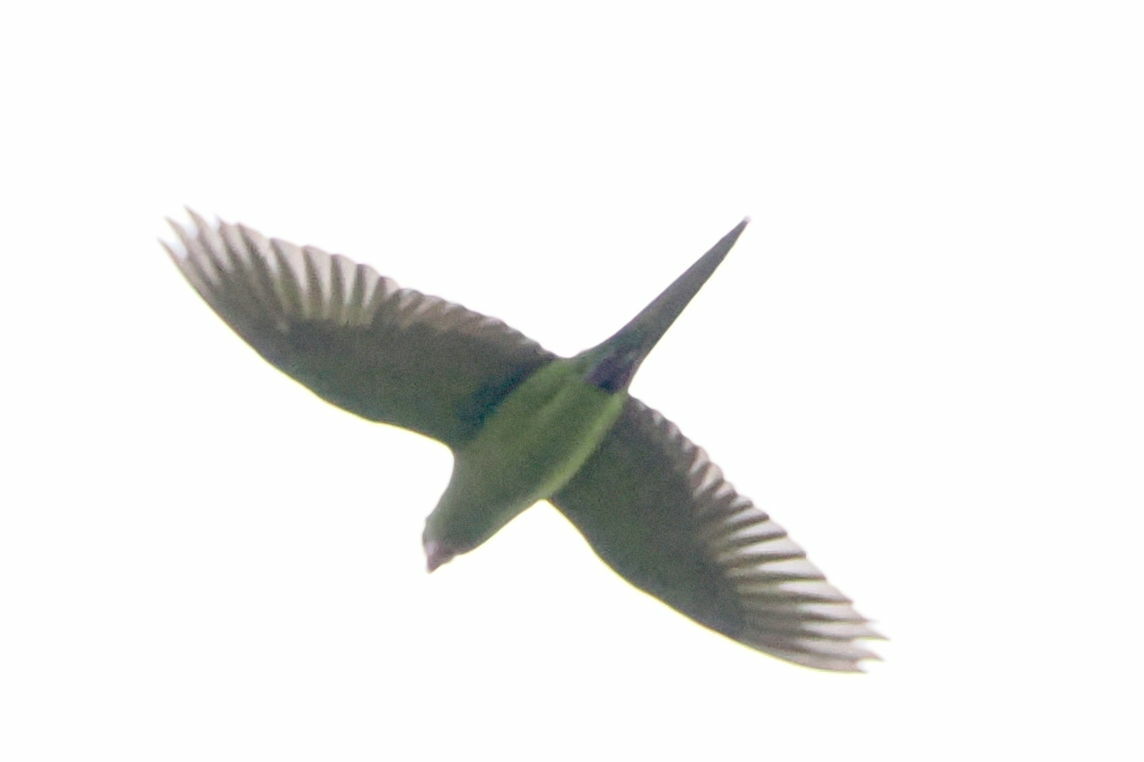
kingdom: Animalia
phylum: Chordata
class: Aves
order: Psittaciformes
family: Psittacidae
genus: Aratinga
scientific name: Aratinga holochlora
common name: Green parakeet
